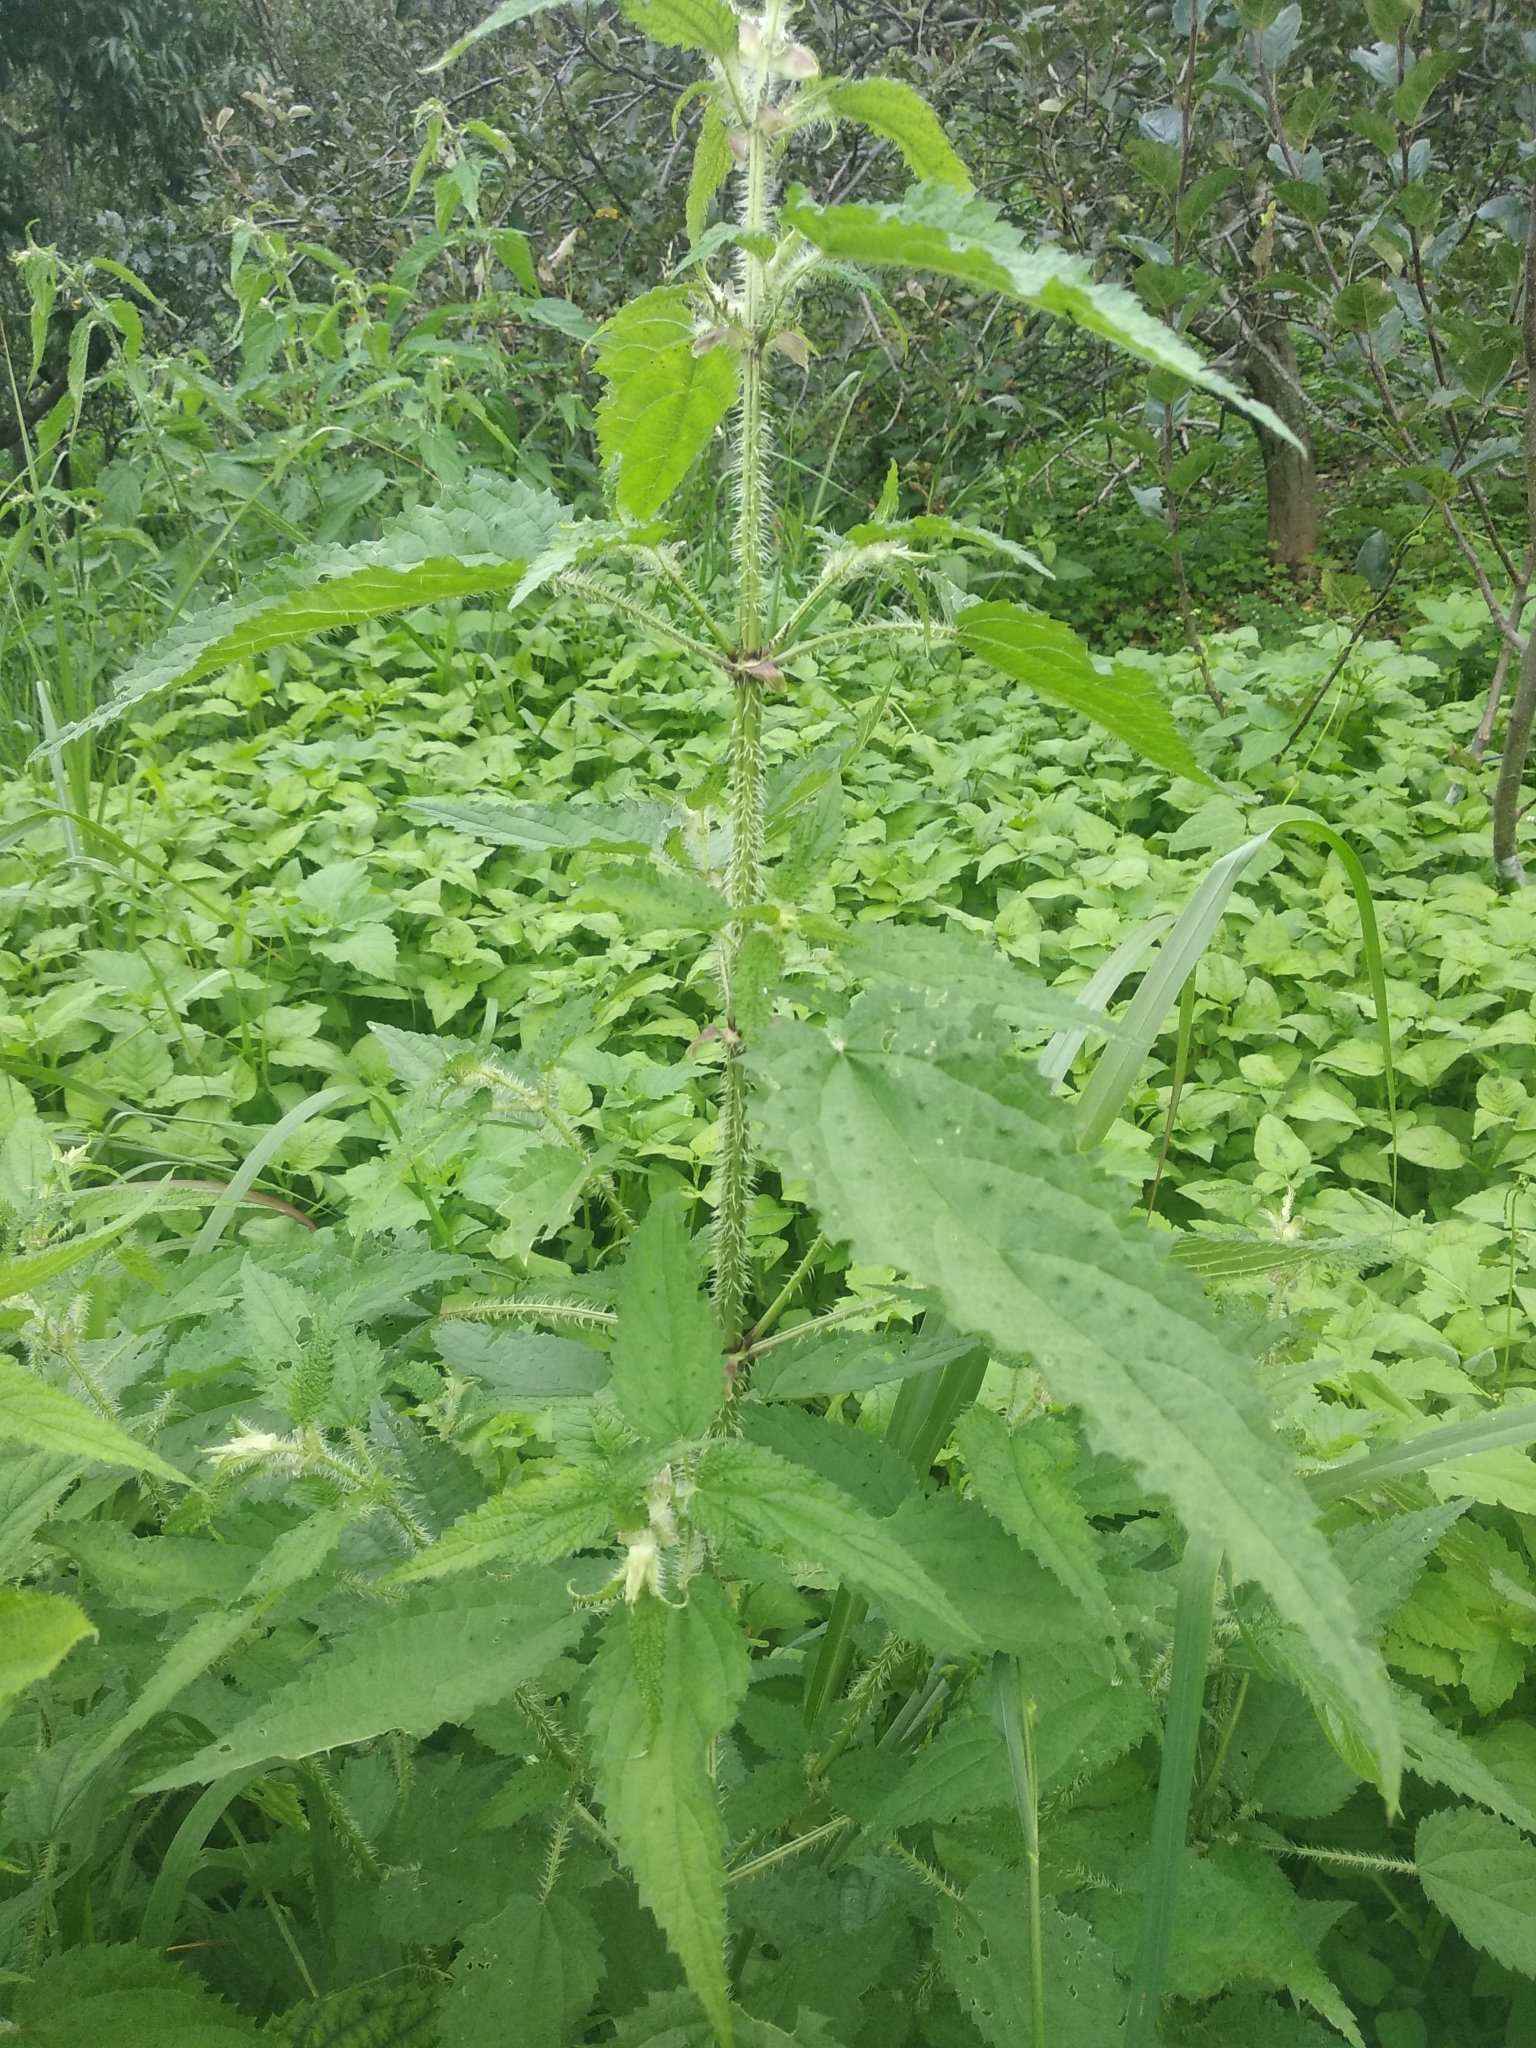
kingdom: Plantae
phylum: Tracheophyta
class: Magnoliopsida
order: Rosales
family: Urticaceae
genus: Urtica
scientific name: Urtica dioica
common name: Common nettle
